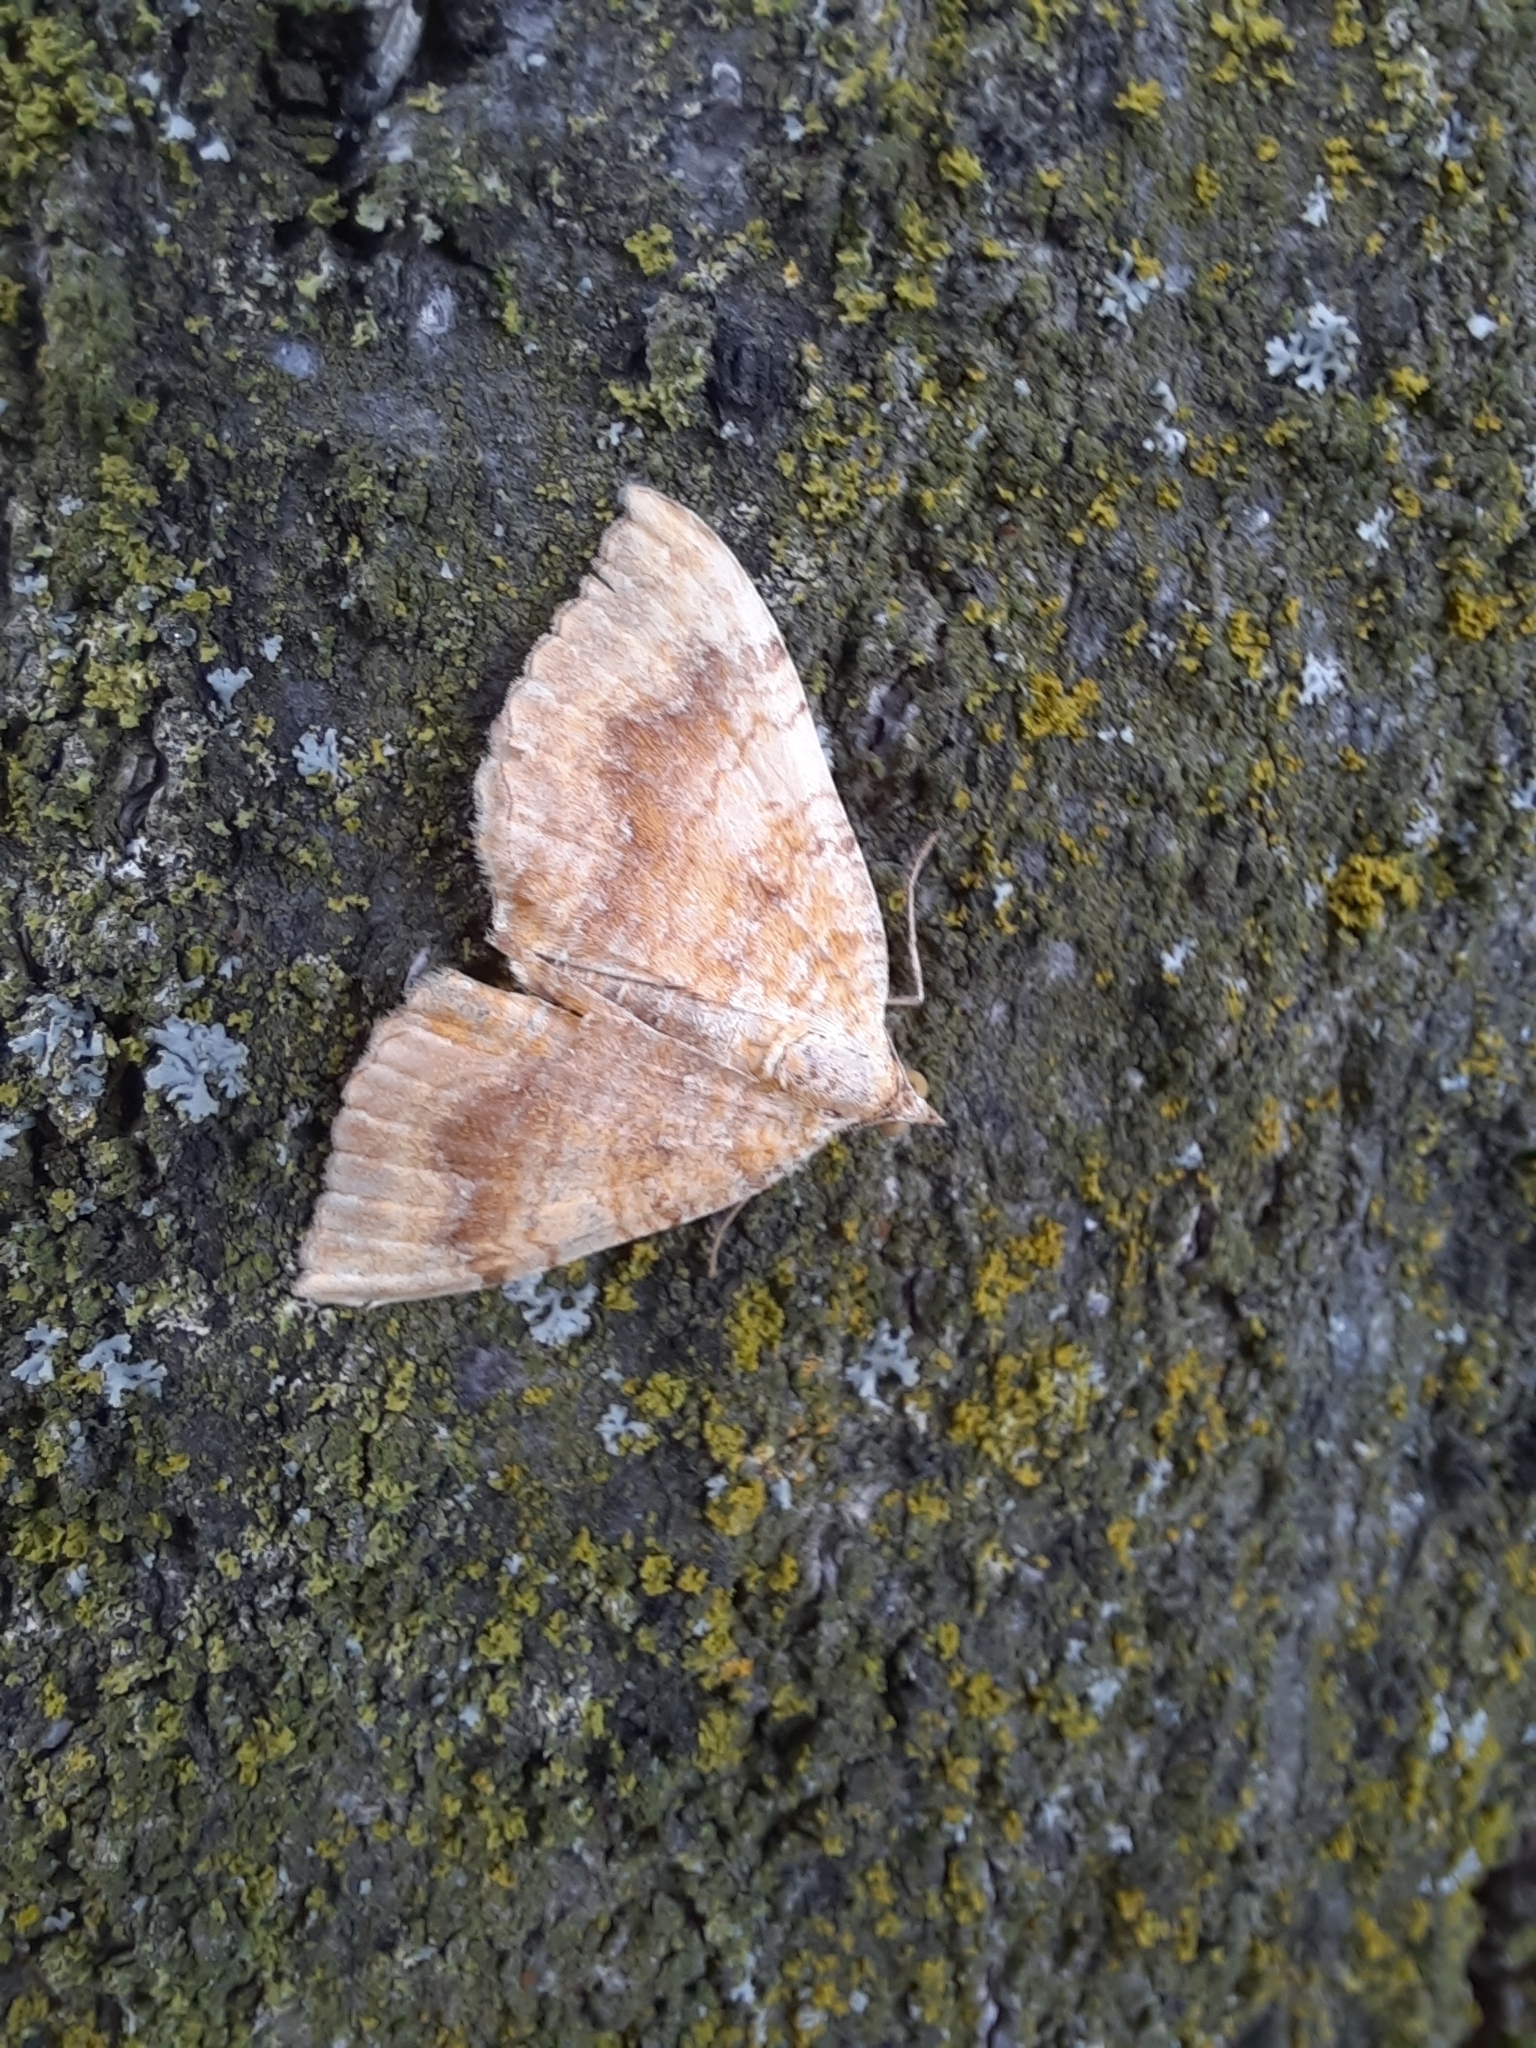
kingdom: Animalia
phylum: Arthropoda
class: Insecta
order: Lepidoptera
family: Geometridae
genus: Camptogramma
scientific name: Camptogramma bilineata
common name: Yellow shell
